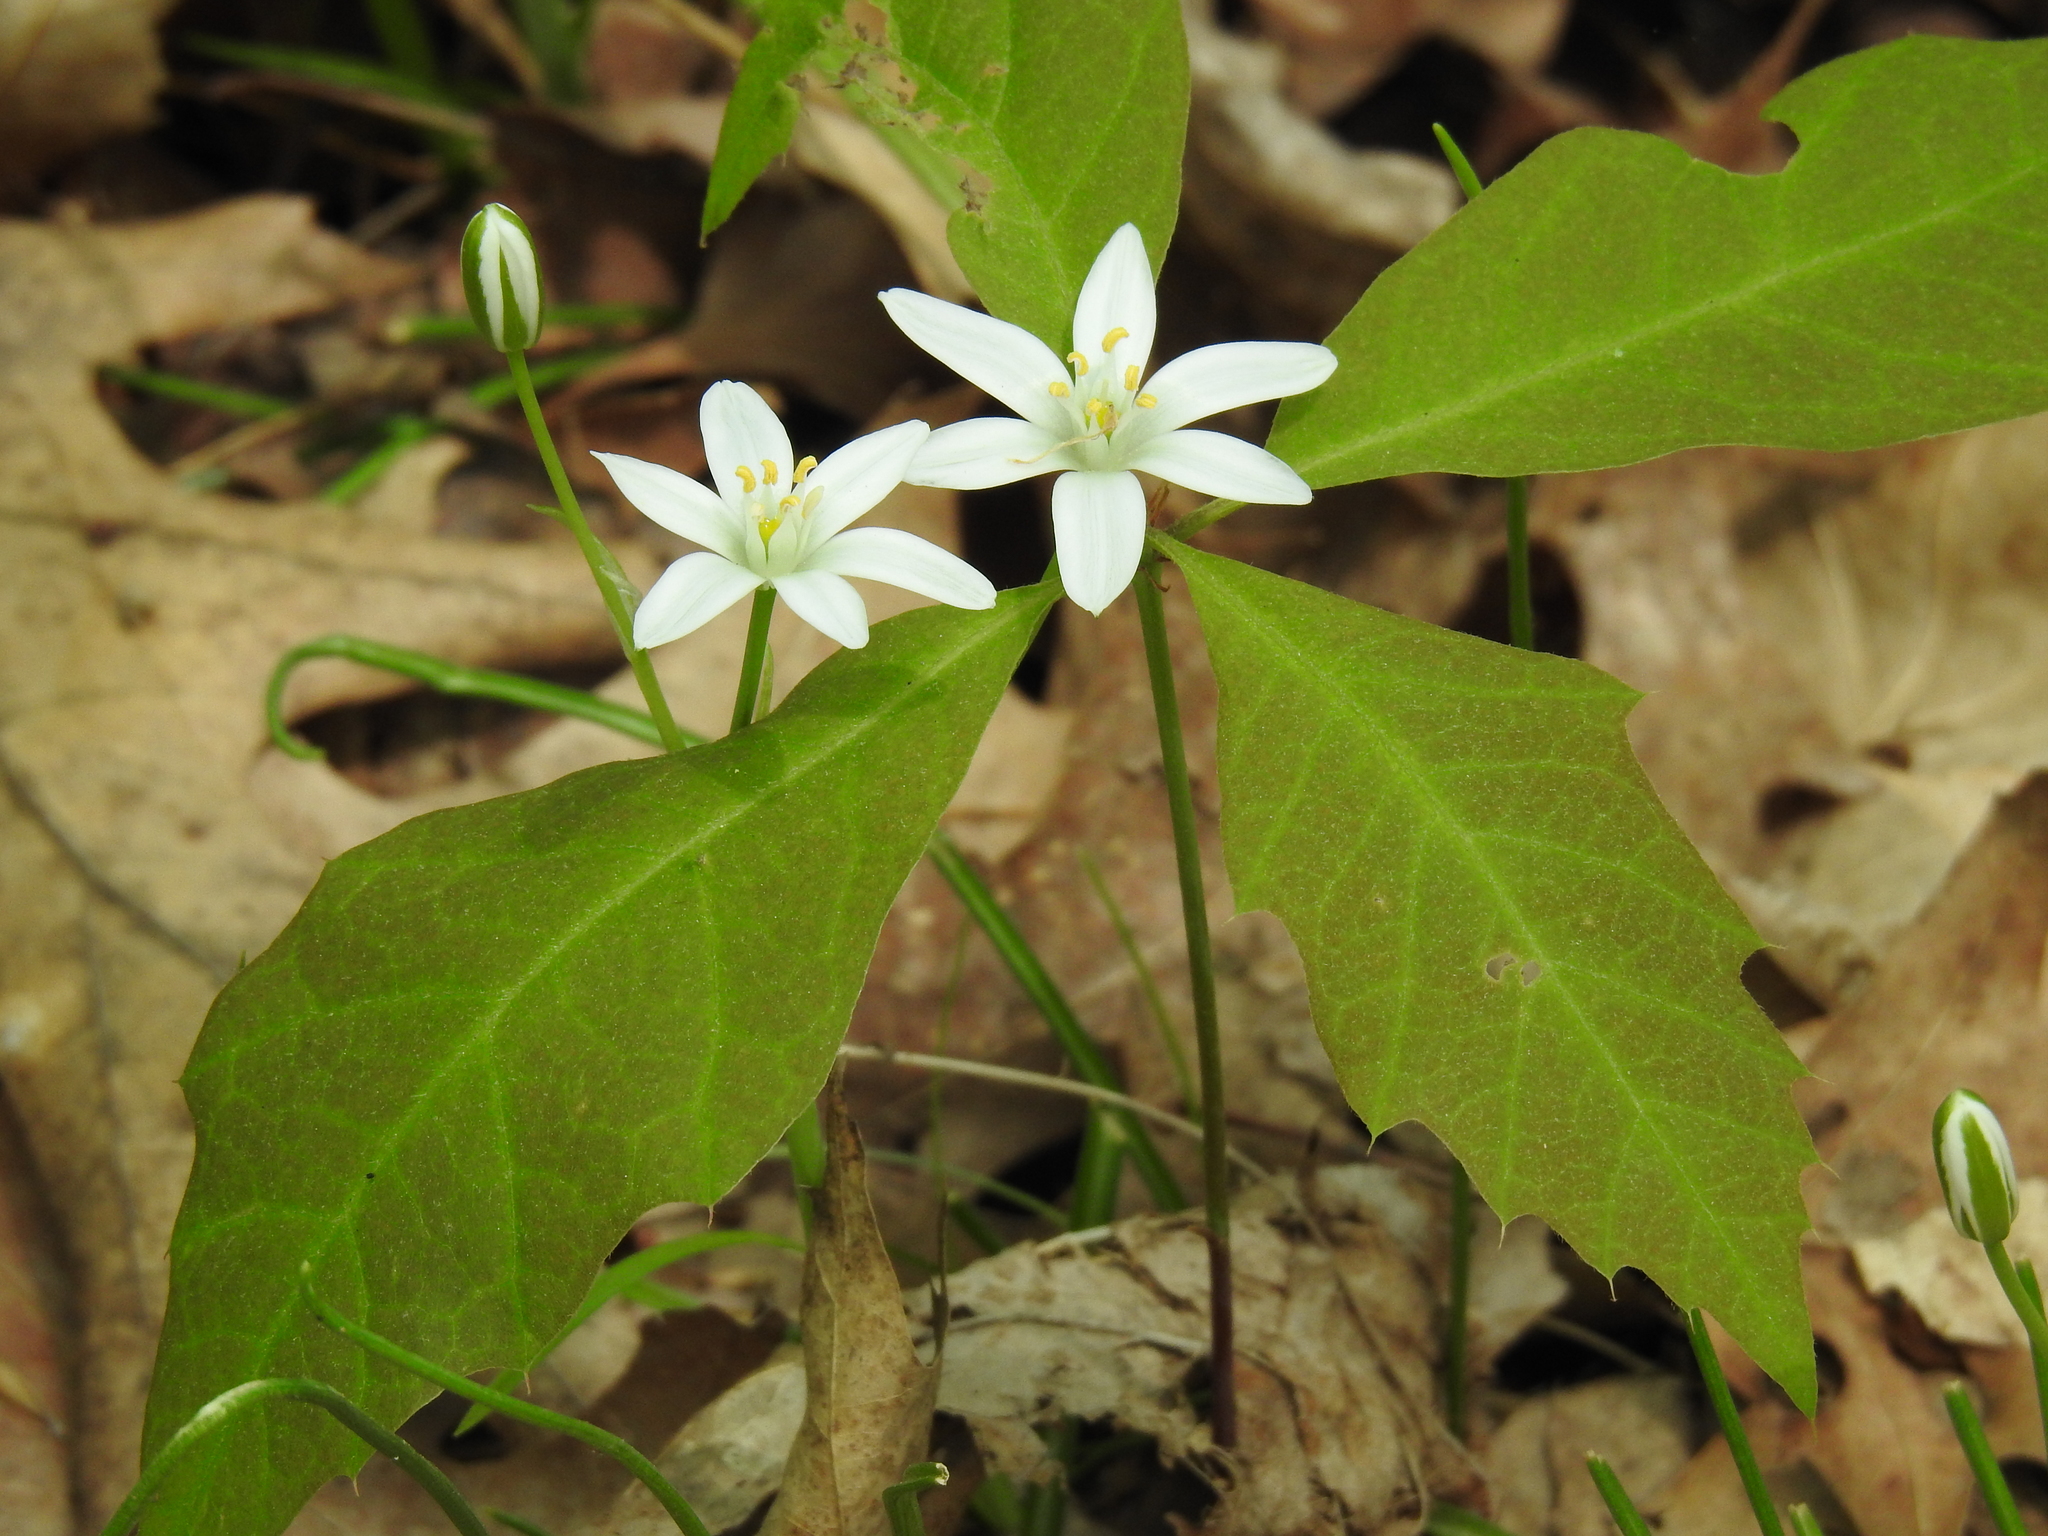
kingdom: Plantae
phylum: Tracheophyta
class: Liliopsida
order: Asparagales
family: Asparagaceae
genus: Ornithogalum
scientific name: Ornithogalum umbellatum
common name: Garden star-of-bethlehem
